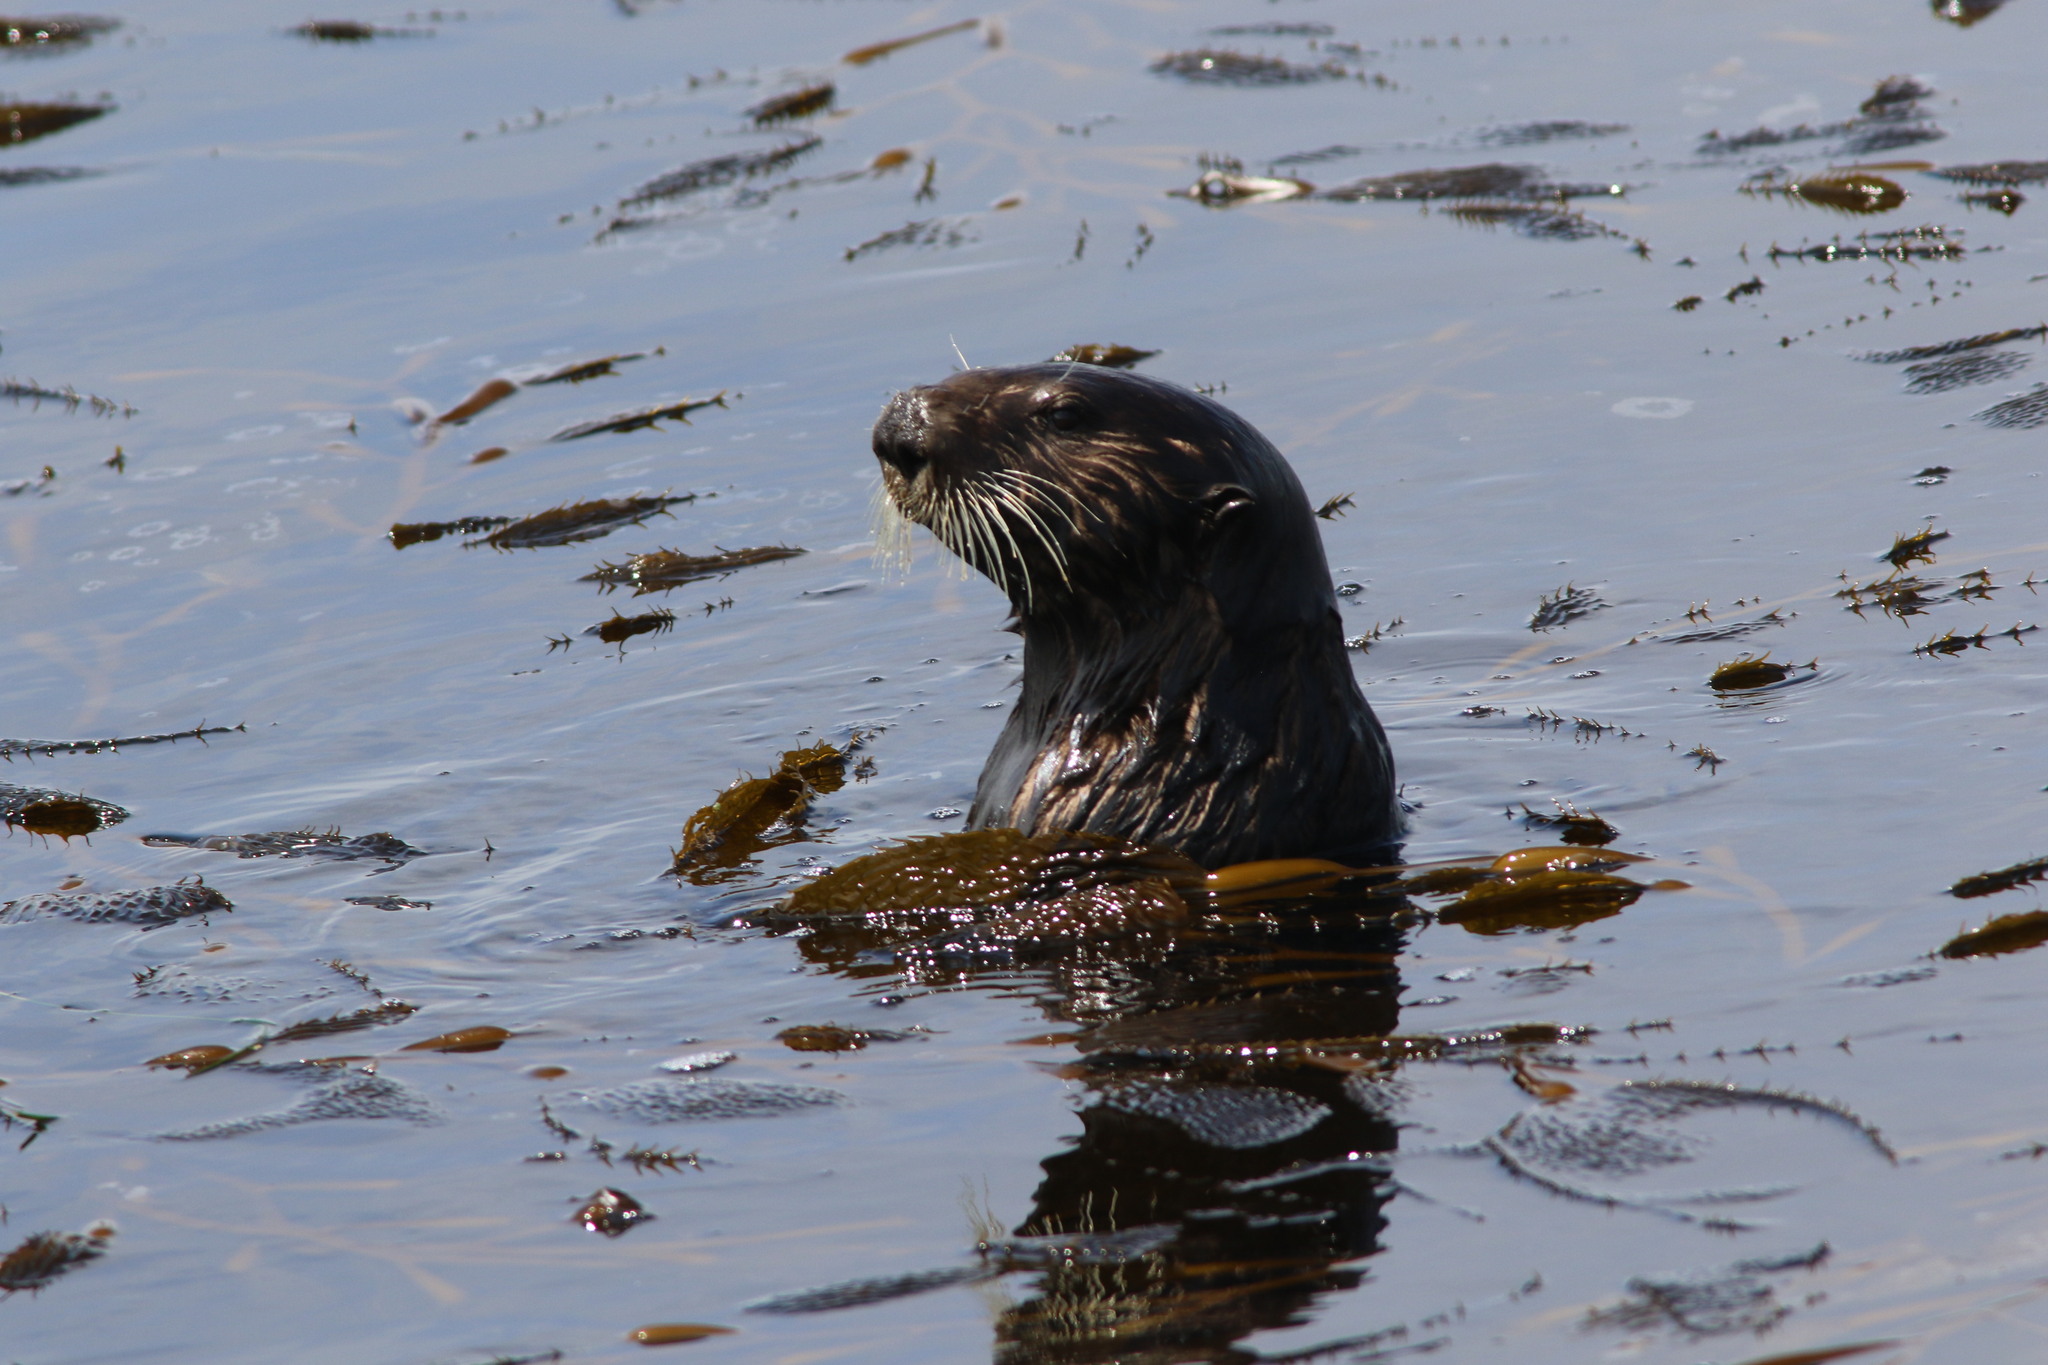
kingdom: Animalia
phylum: Chordata
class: Mammalia
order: Carnivora
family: Mustelidae
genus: Enhydra
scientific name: Enhydra lutris
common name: Sea otter
